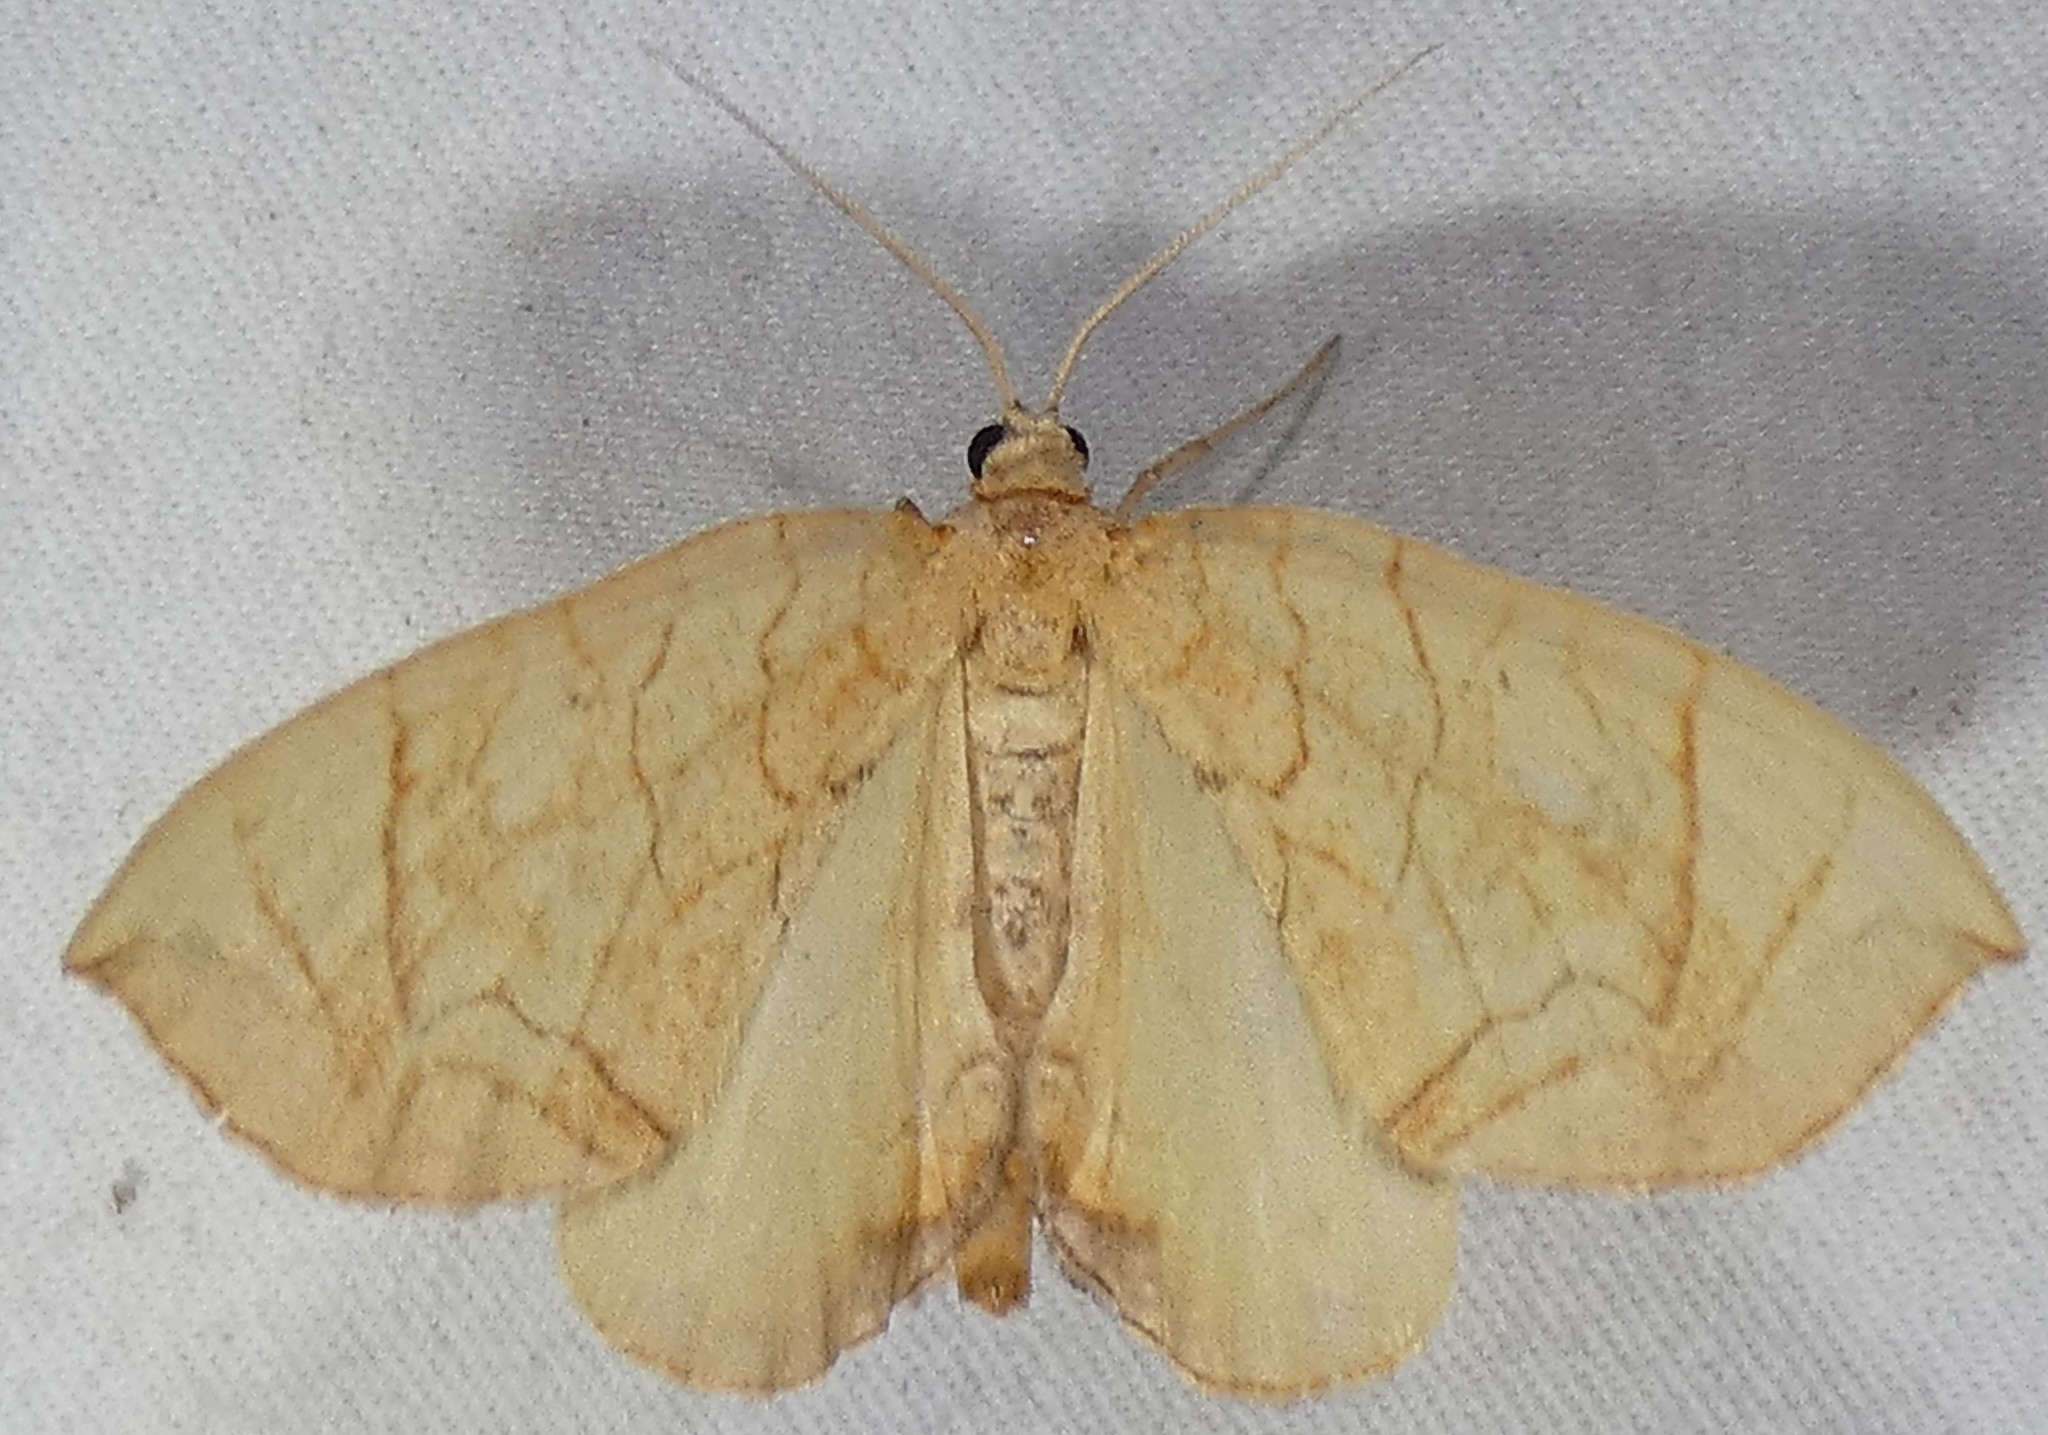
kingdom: Animalia
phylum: Arthropoda
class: Insecta
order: Lepidoptera
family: Geometridae
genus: Eulithis
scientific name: Eulithis
